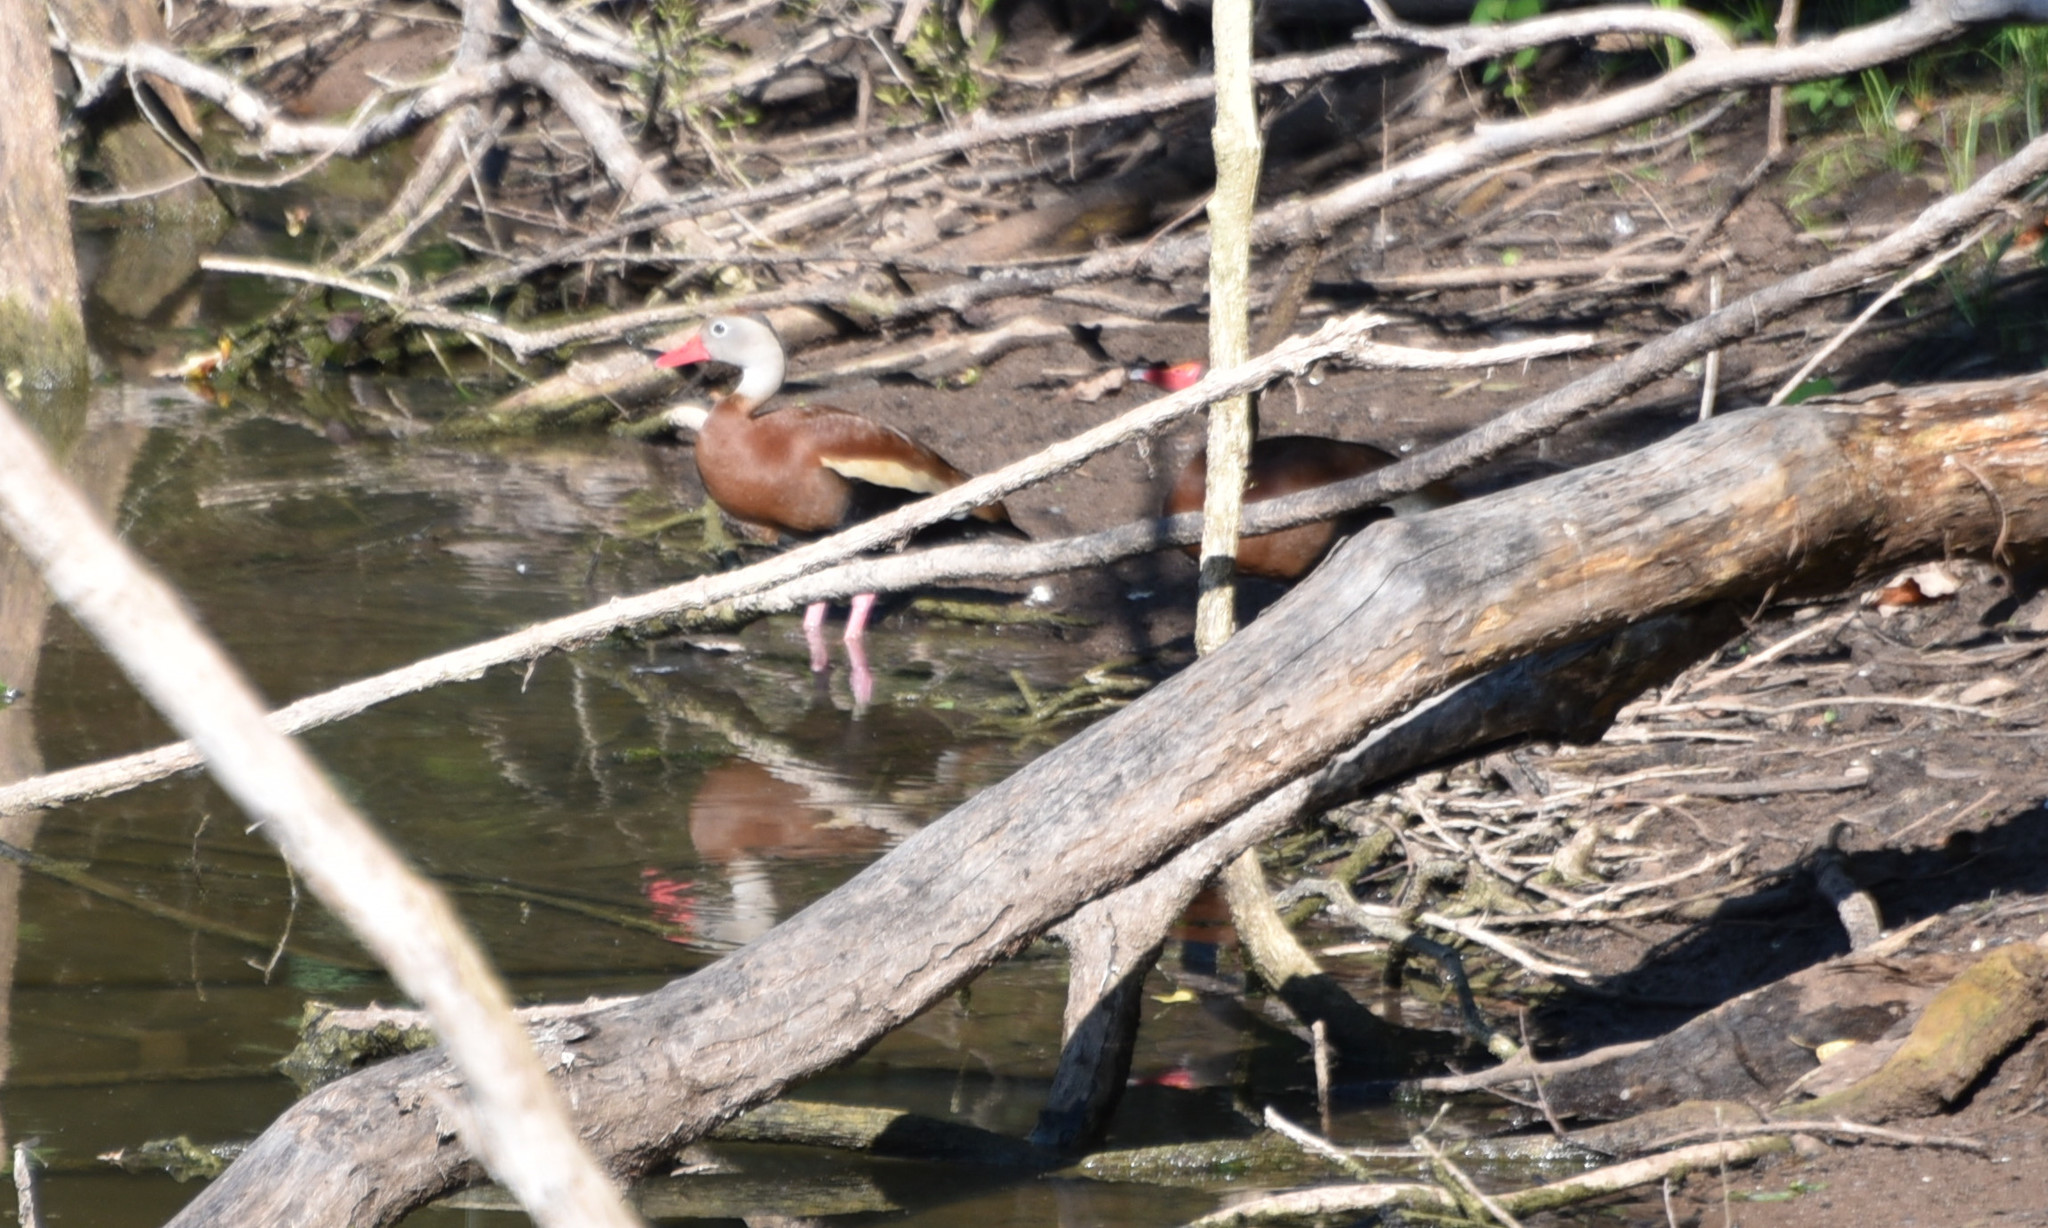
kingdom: Animalia
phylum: Chordata
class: Aves
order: Anseriformes
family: Anatidae
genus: Dendrocygna
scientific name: Dendrocygna autumnalis
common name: Black-bellied whistling duck
